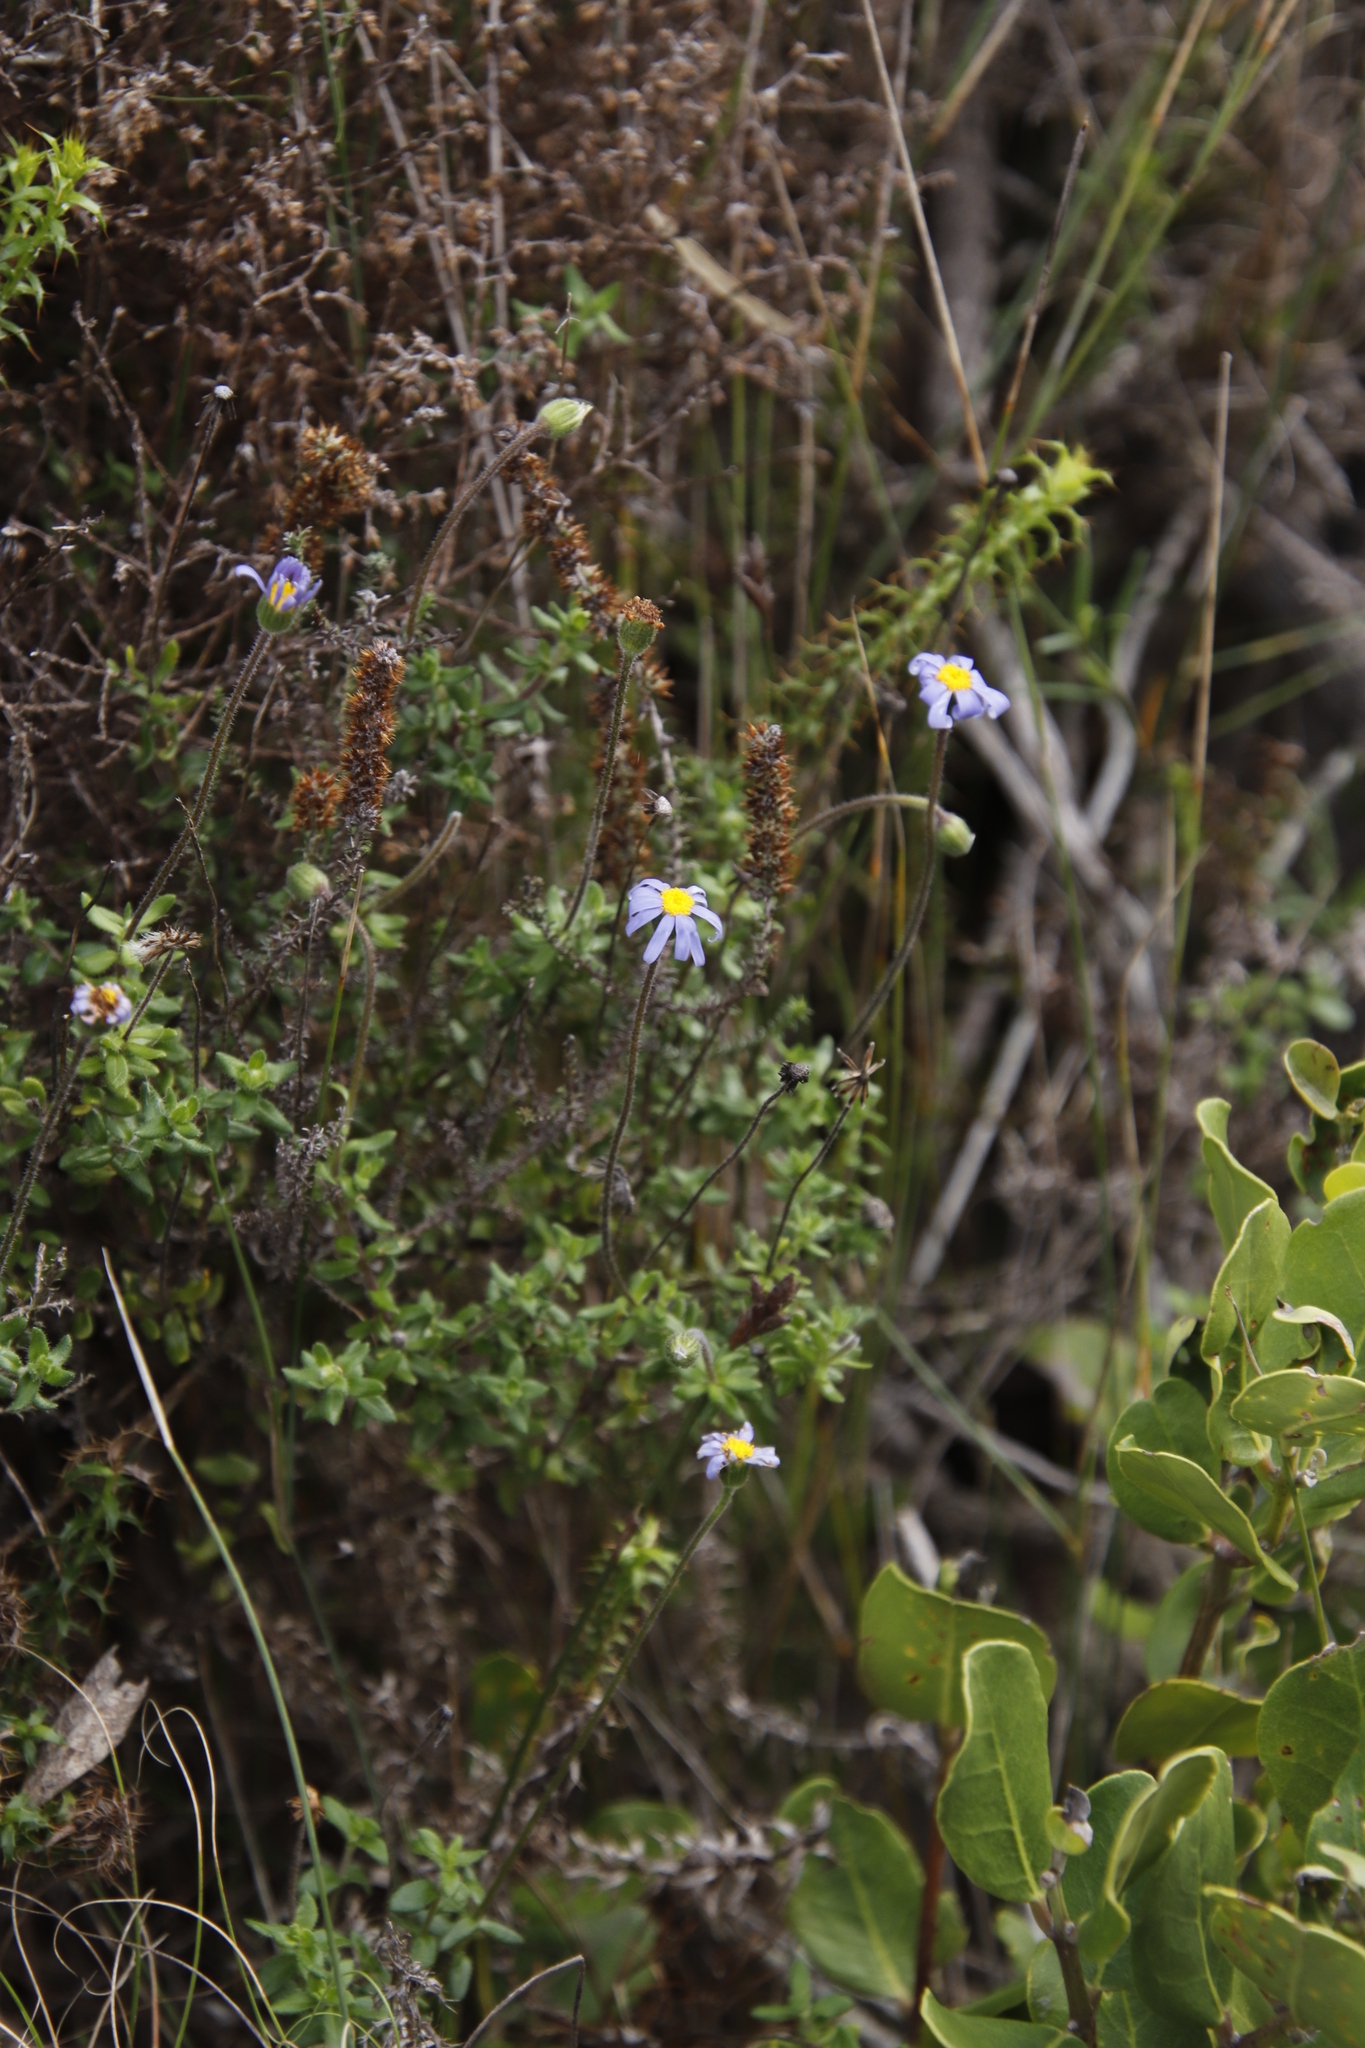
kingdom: Plantae
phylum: Tracheophyta
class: Magnoliopsida
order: Asterales
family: Asteraceae
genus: Felicia
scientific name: Felicia aethiopica
